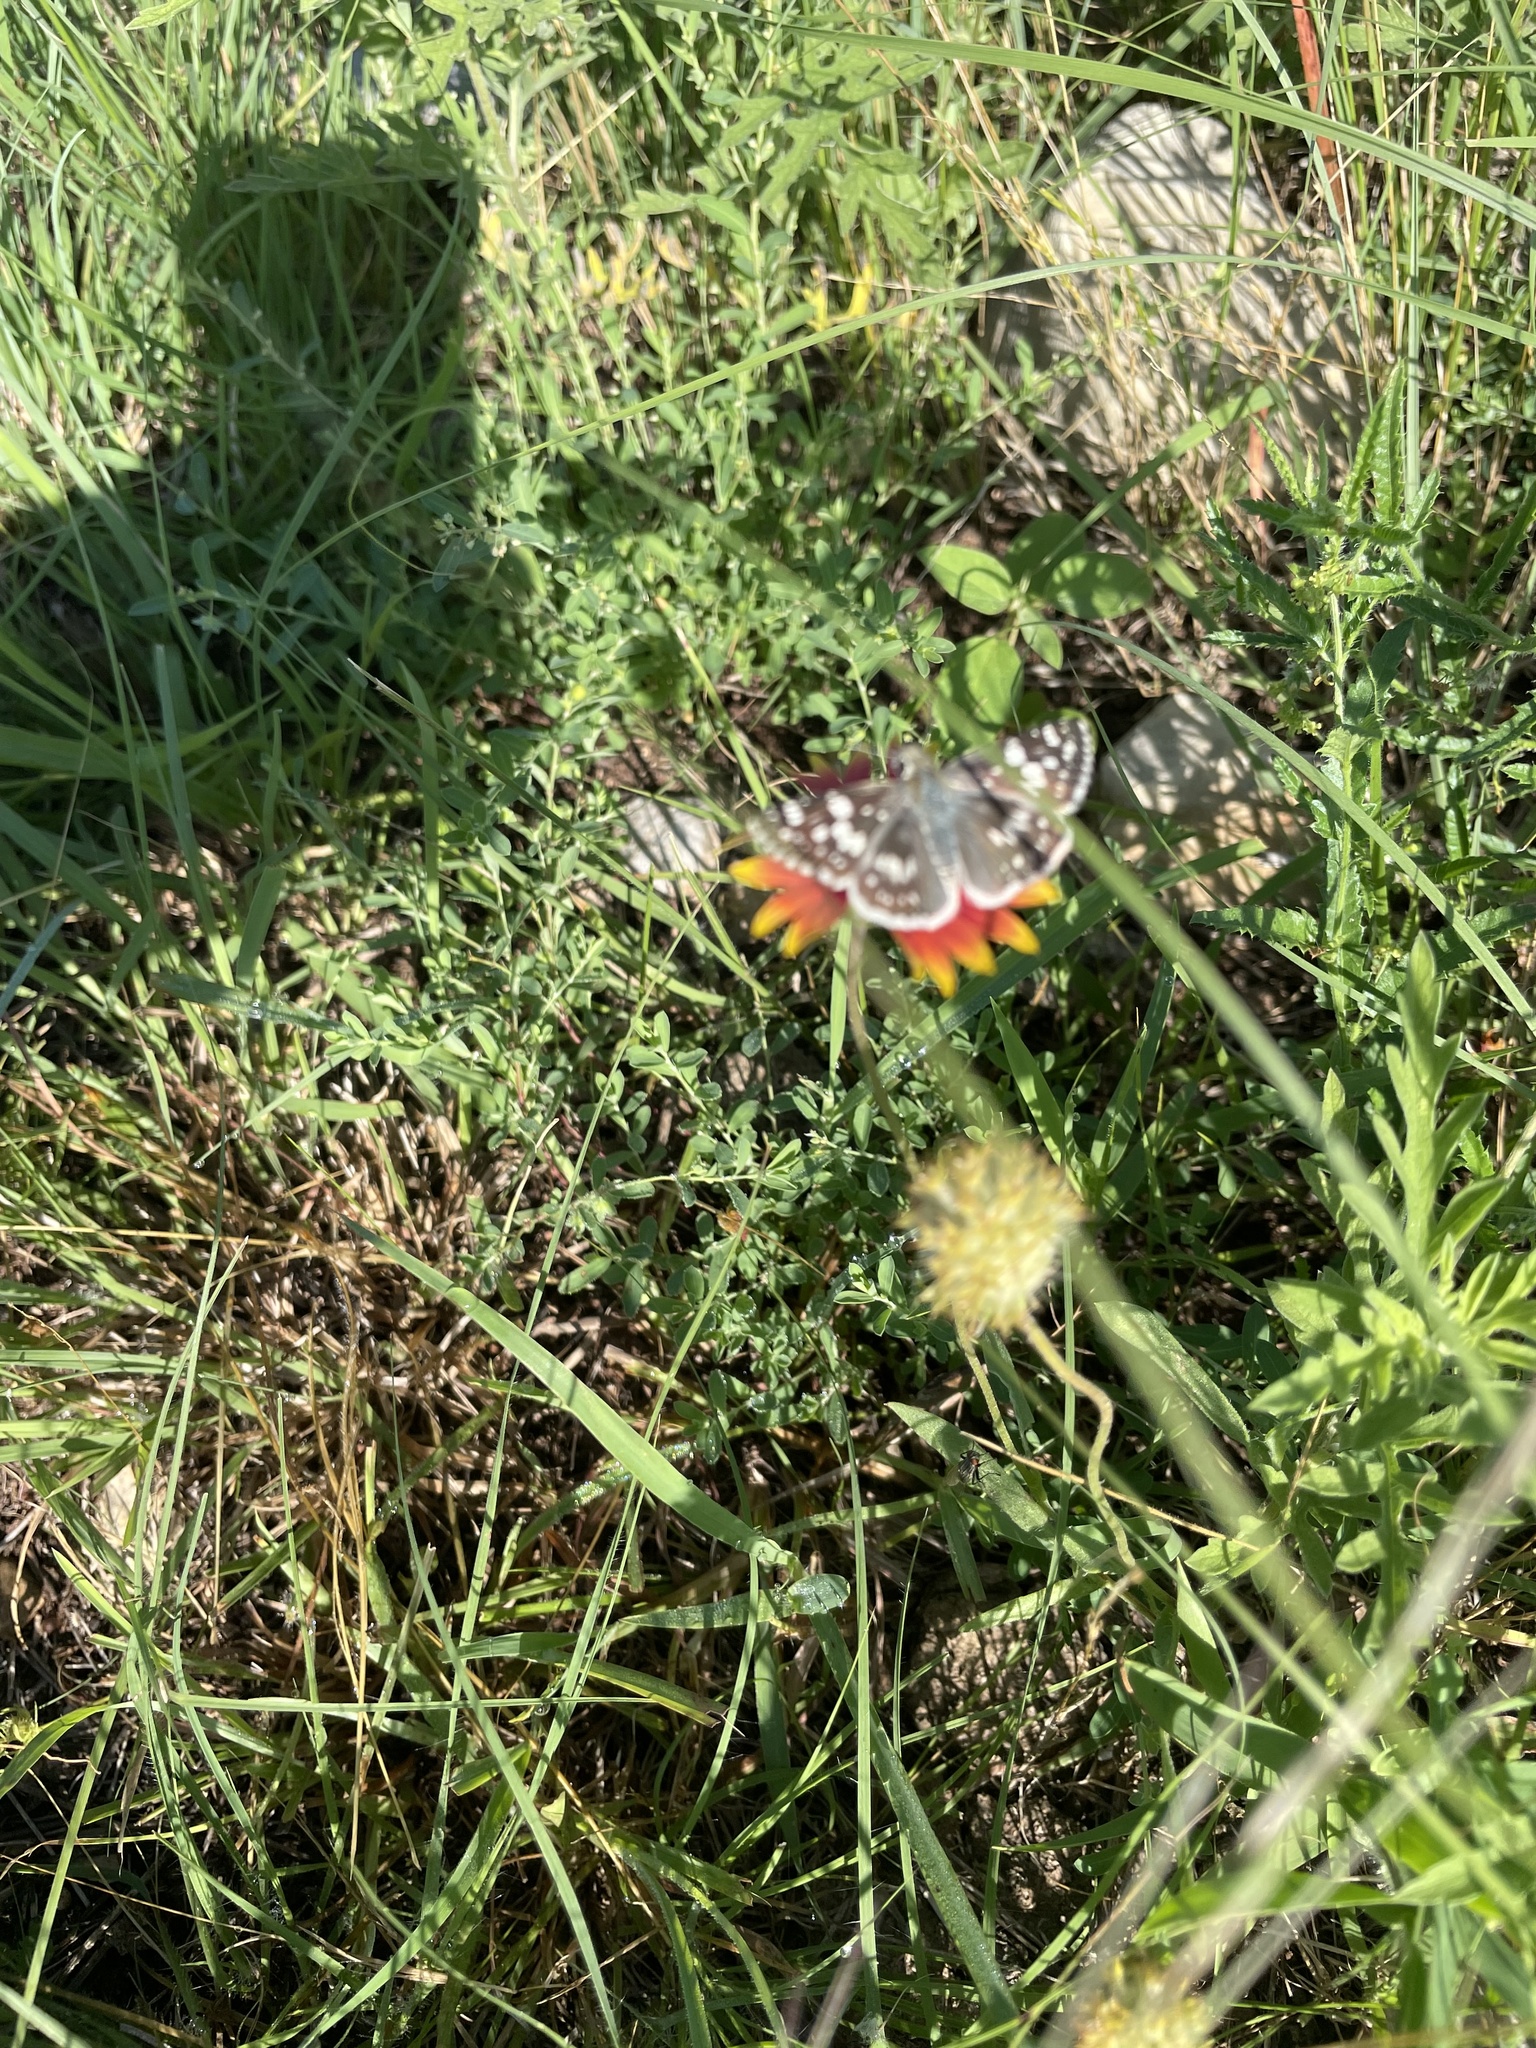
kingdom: Animalia
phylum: Arthropoda
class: Insecta
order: Lepidoptera
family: Hesperiidae
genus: Burnsius
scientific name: Burnsius communis
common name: Common checkered-skipper
